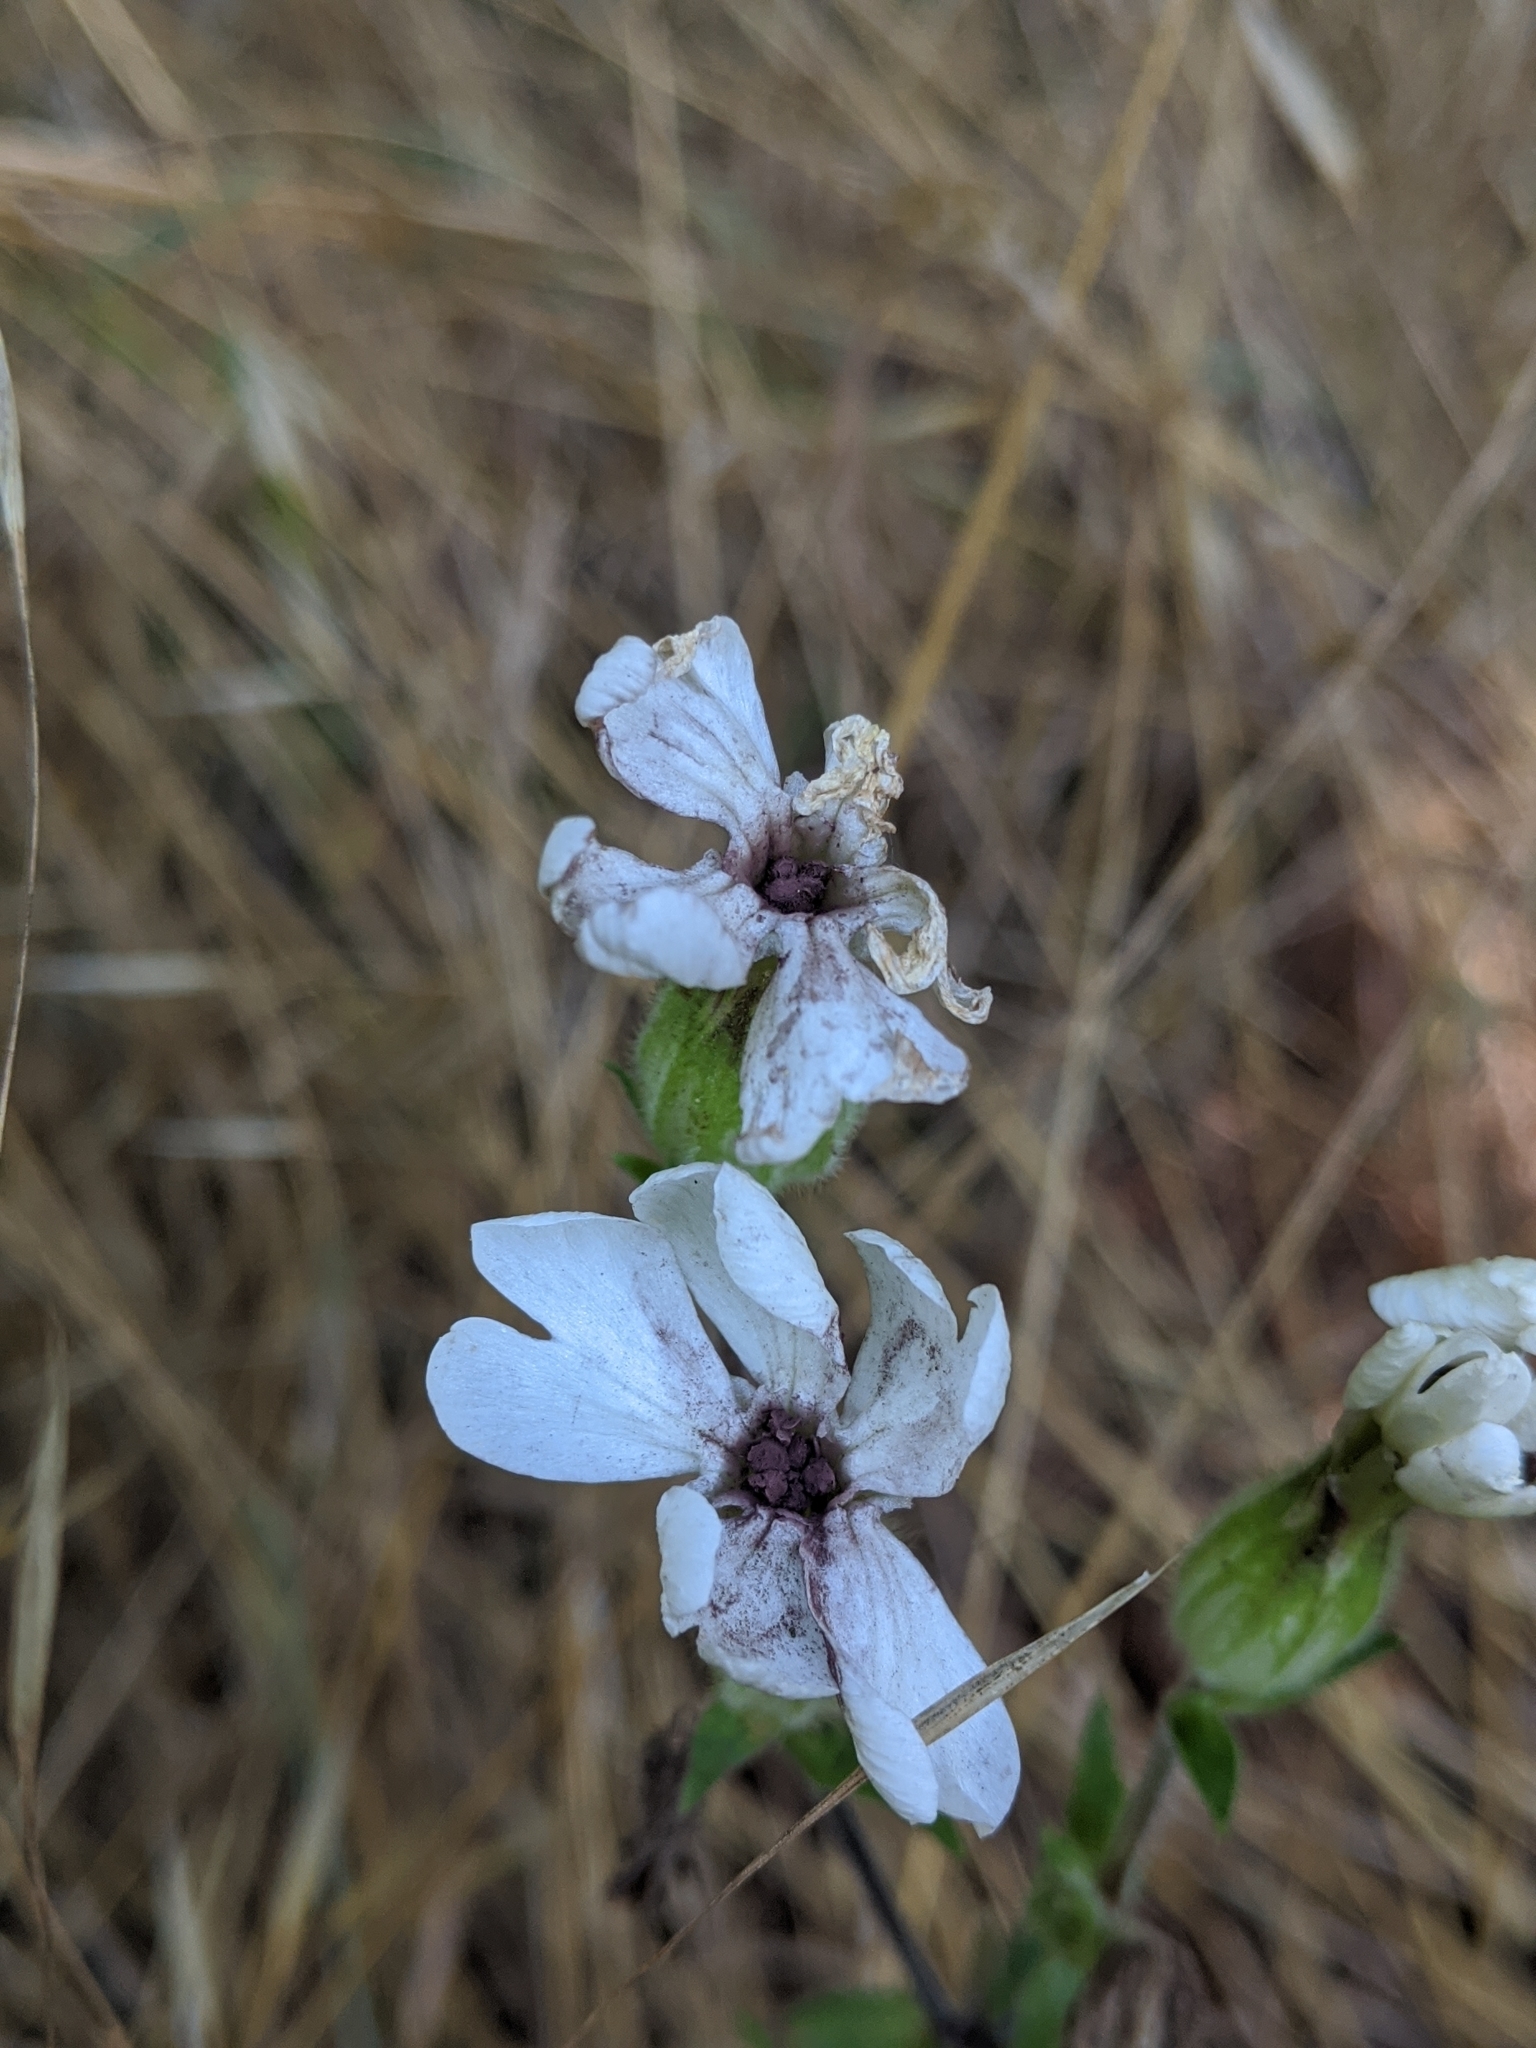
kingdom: Fungi
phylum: Basidiomycota
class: Microbotryomycetes
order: Microbotryales
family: Microbotryaceae
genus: Microbotryum
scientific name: Microbotryum lychnidis-dioicae
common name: Campion anther smut
